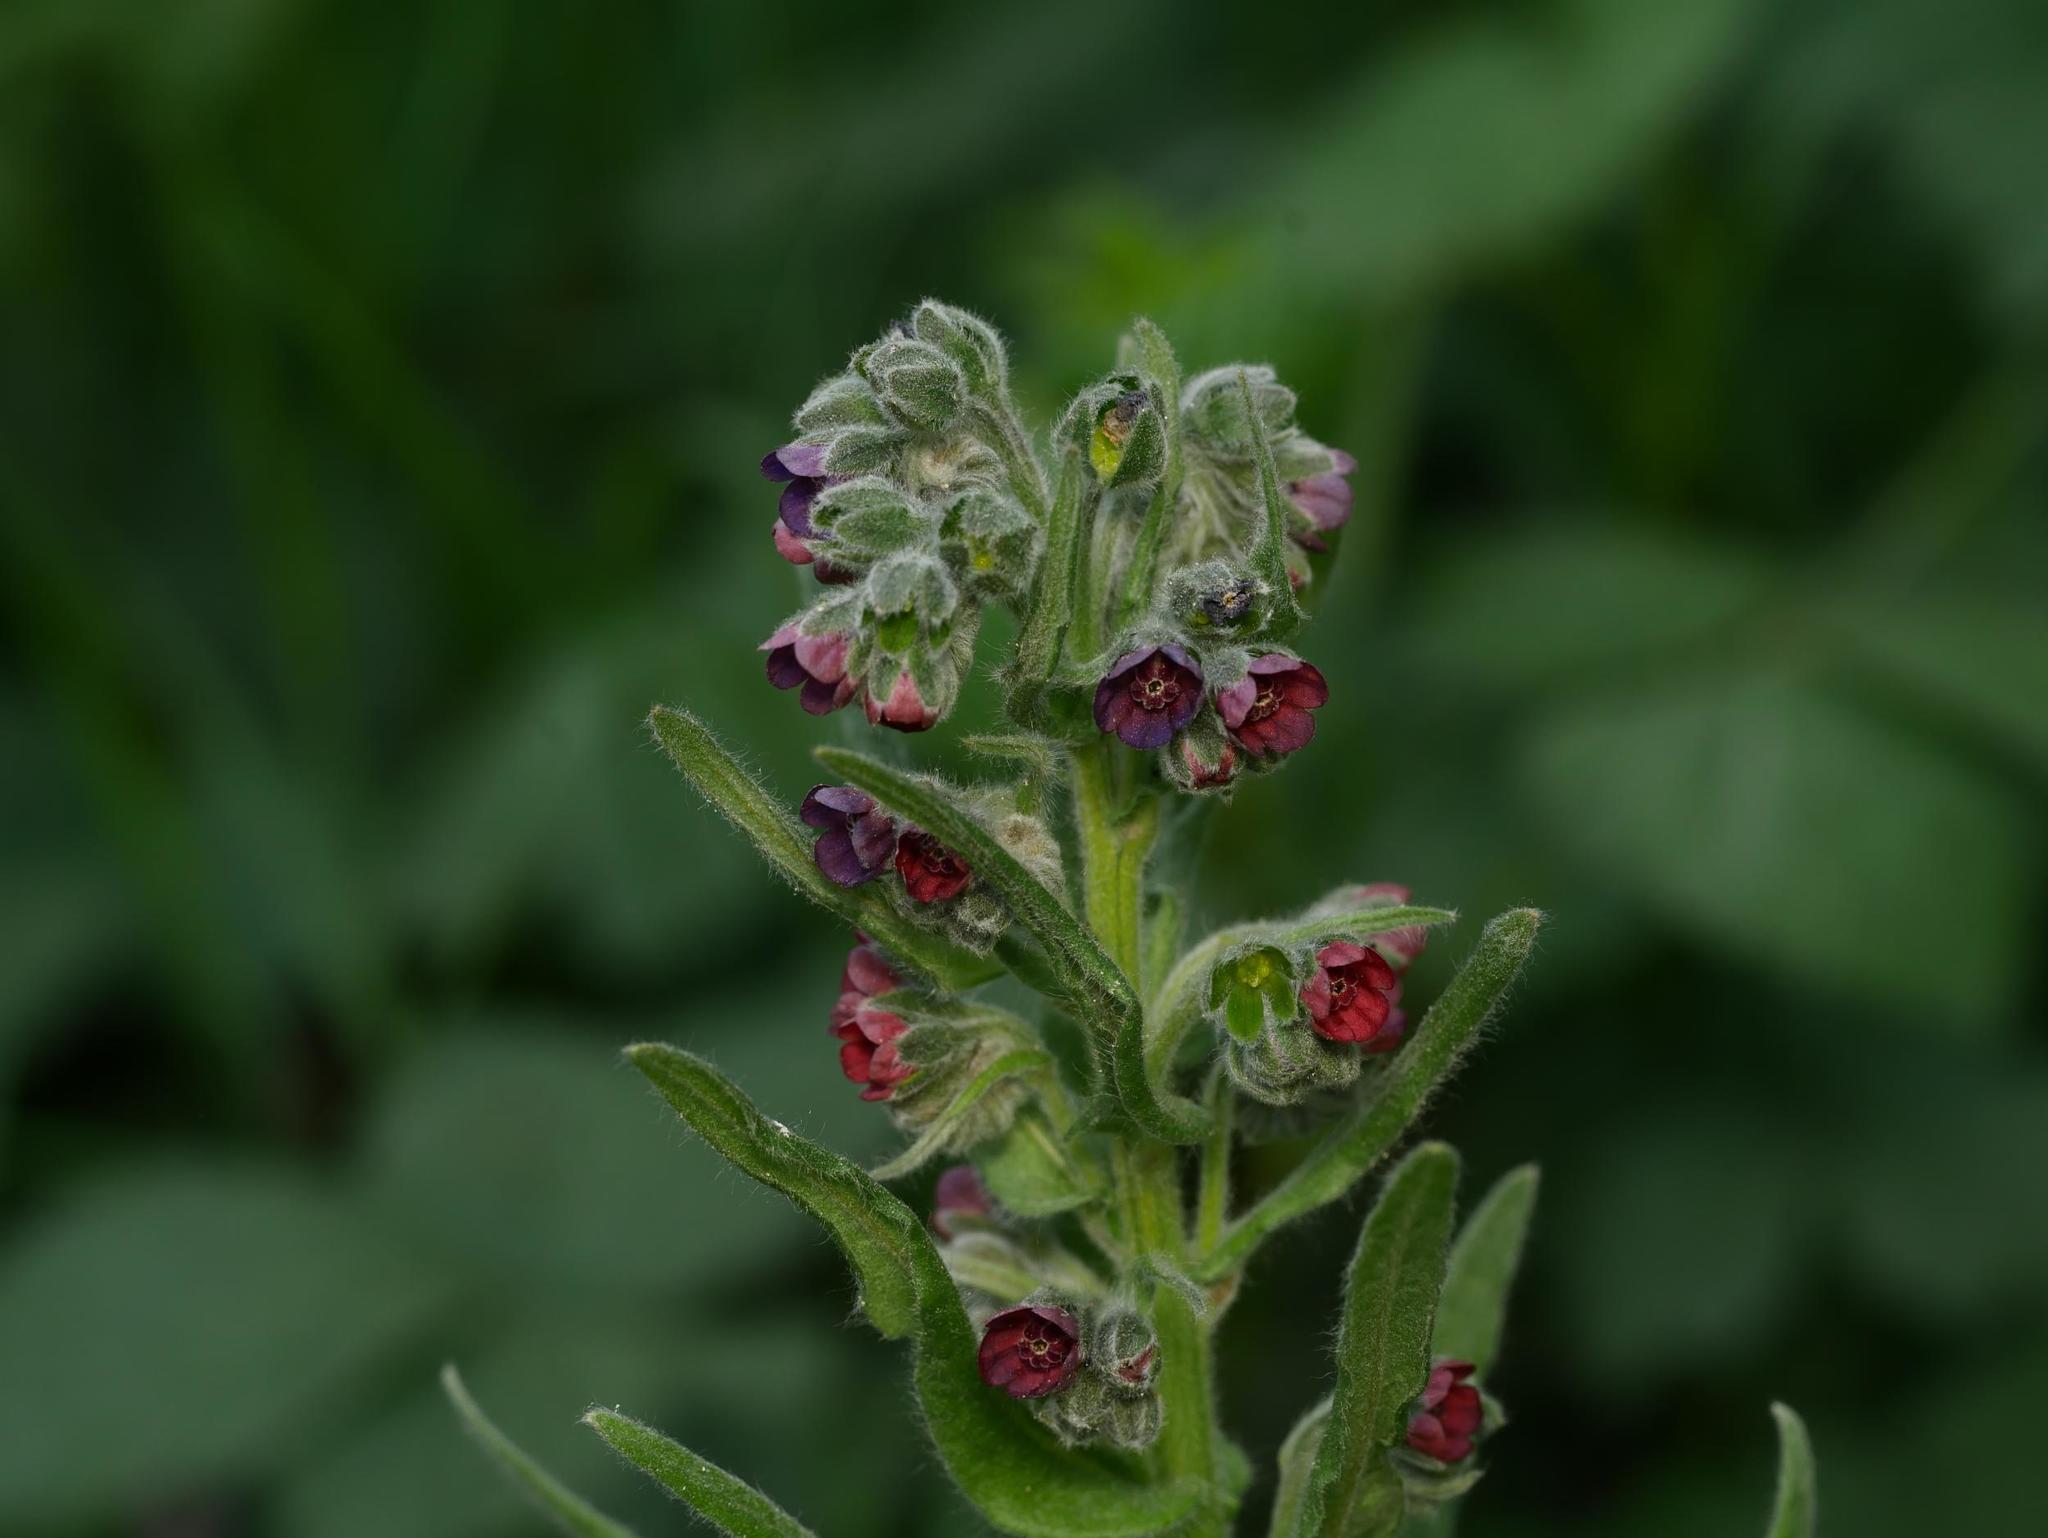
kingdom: Plantae
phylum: Tracheophyta
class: Magnoliopsida
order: Boraginales
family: Boraginaceae
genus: Cynoglossum
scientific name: Cynoglossum officinale
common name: Hound's-tongue
